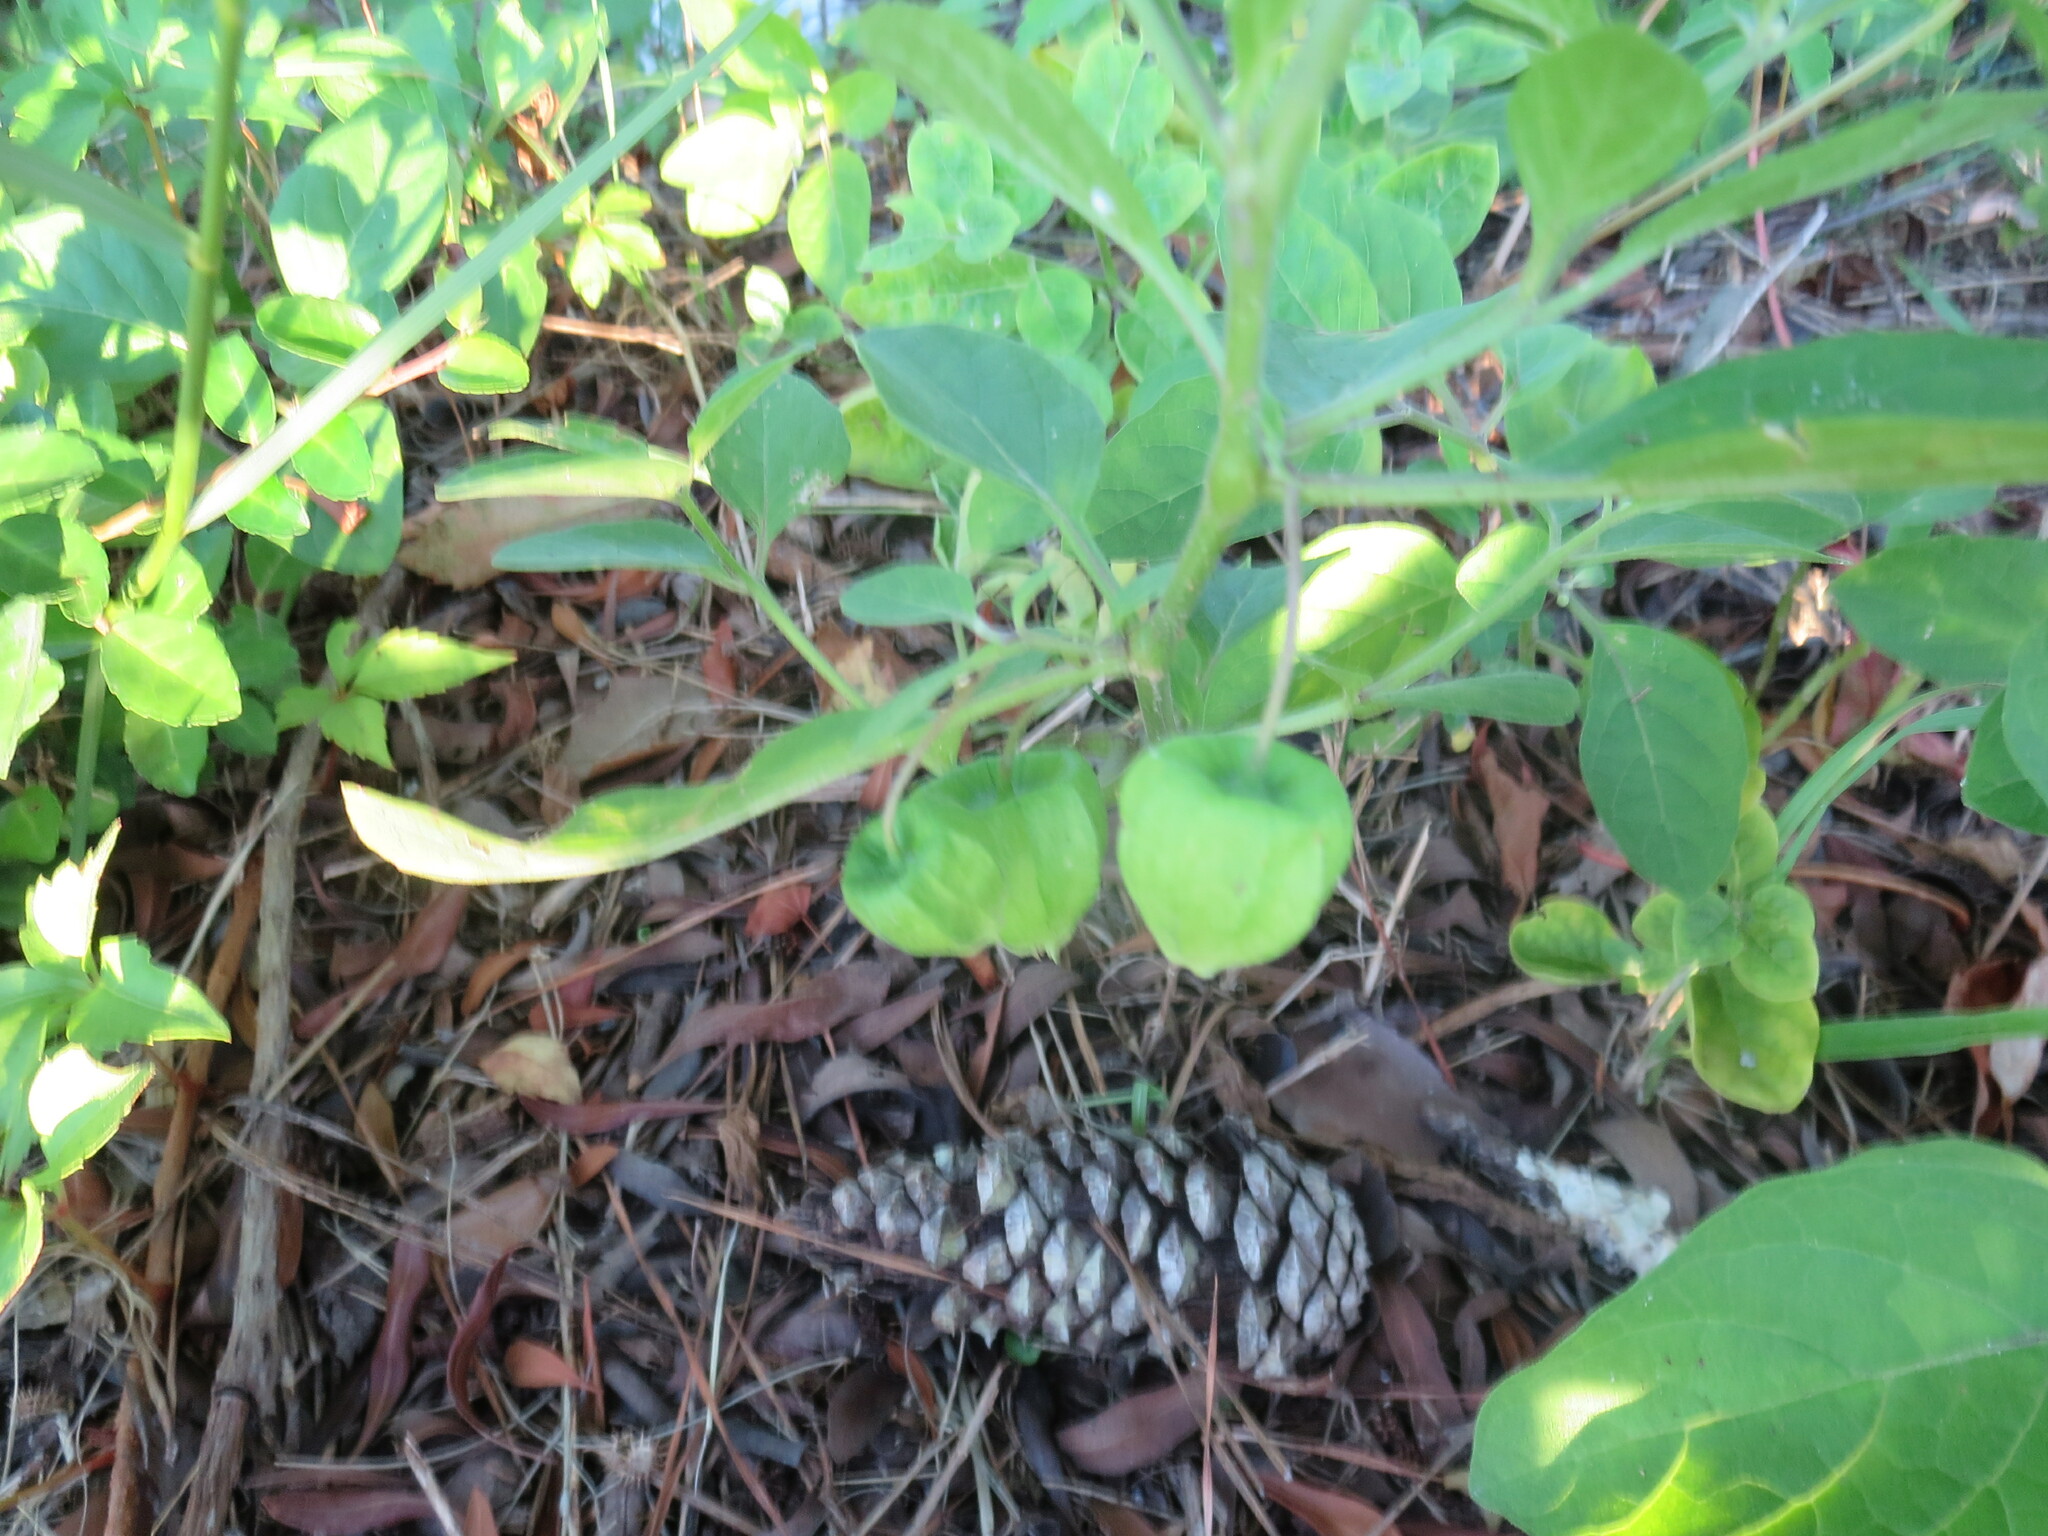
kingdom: Plantae
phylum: Tracheophyta
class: Magnoliopsida
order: Solanales
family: Solanaceae
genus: Physalis
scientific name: Physalis walteri
